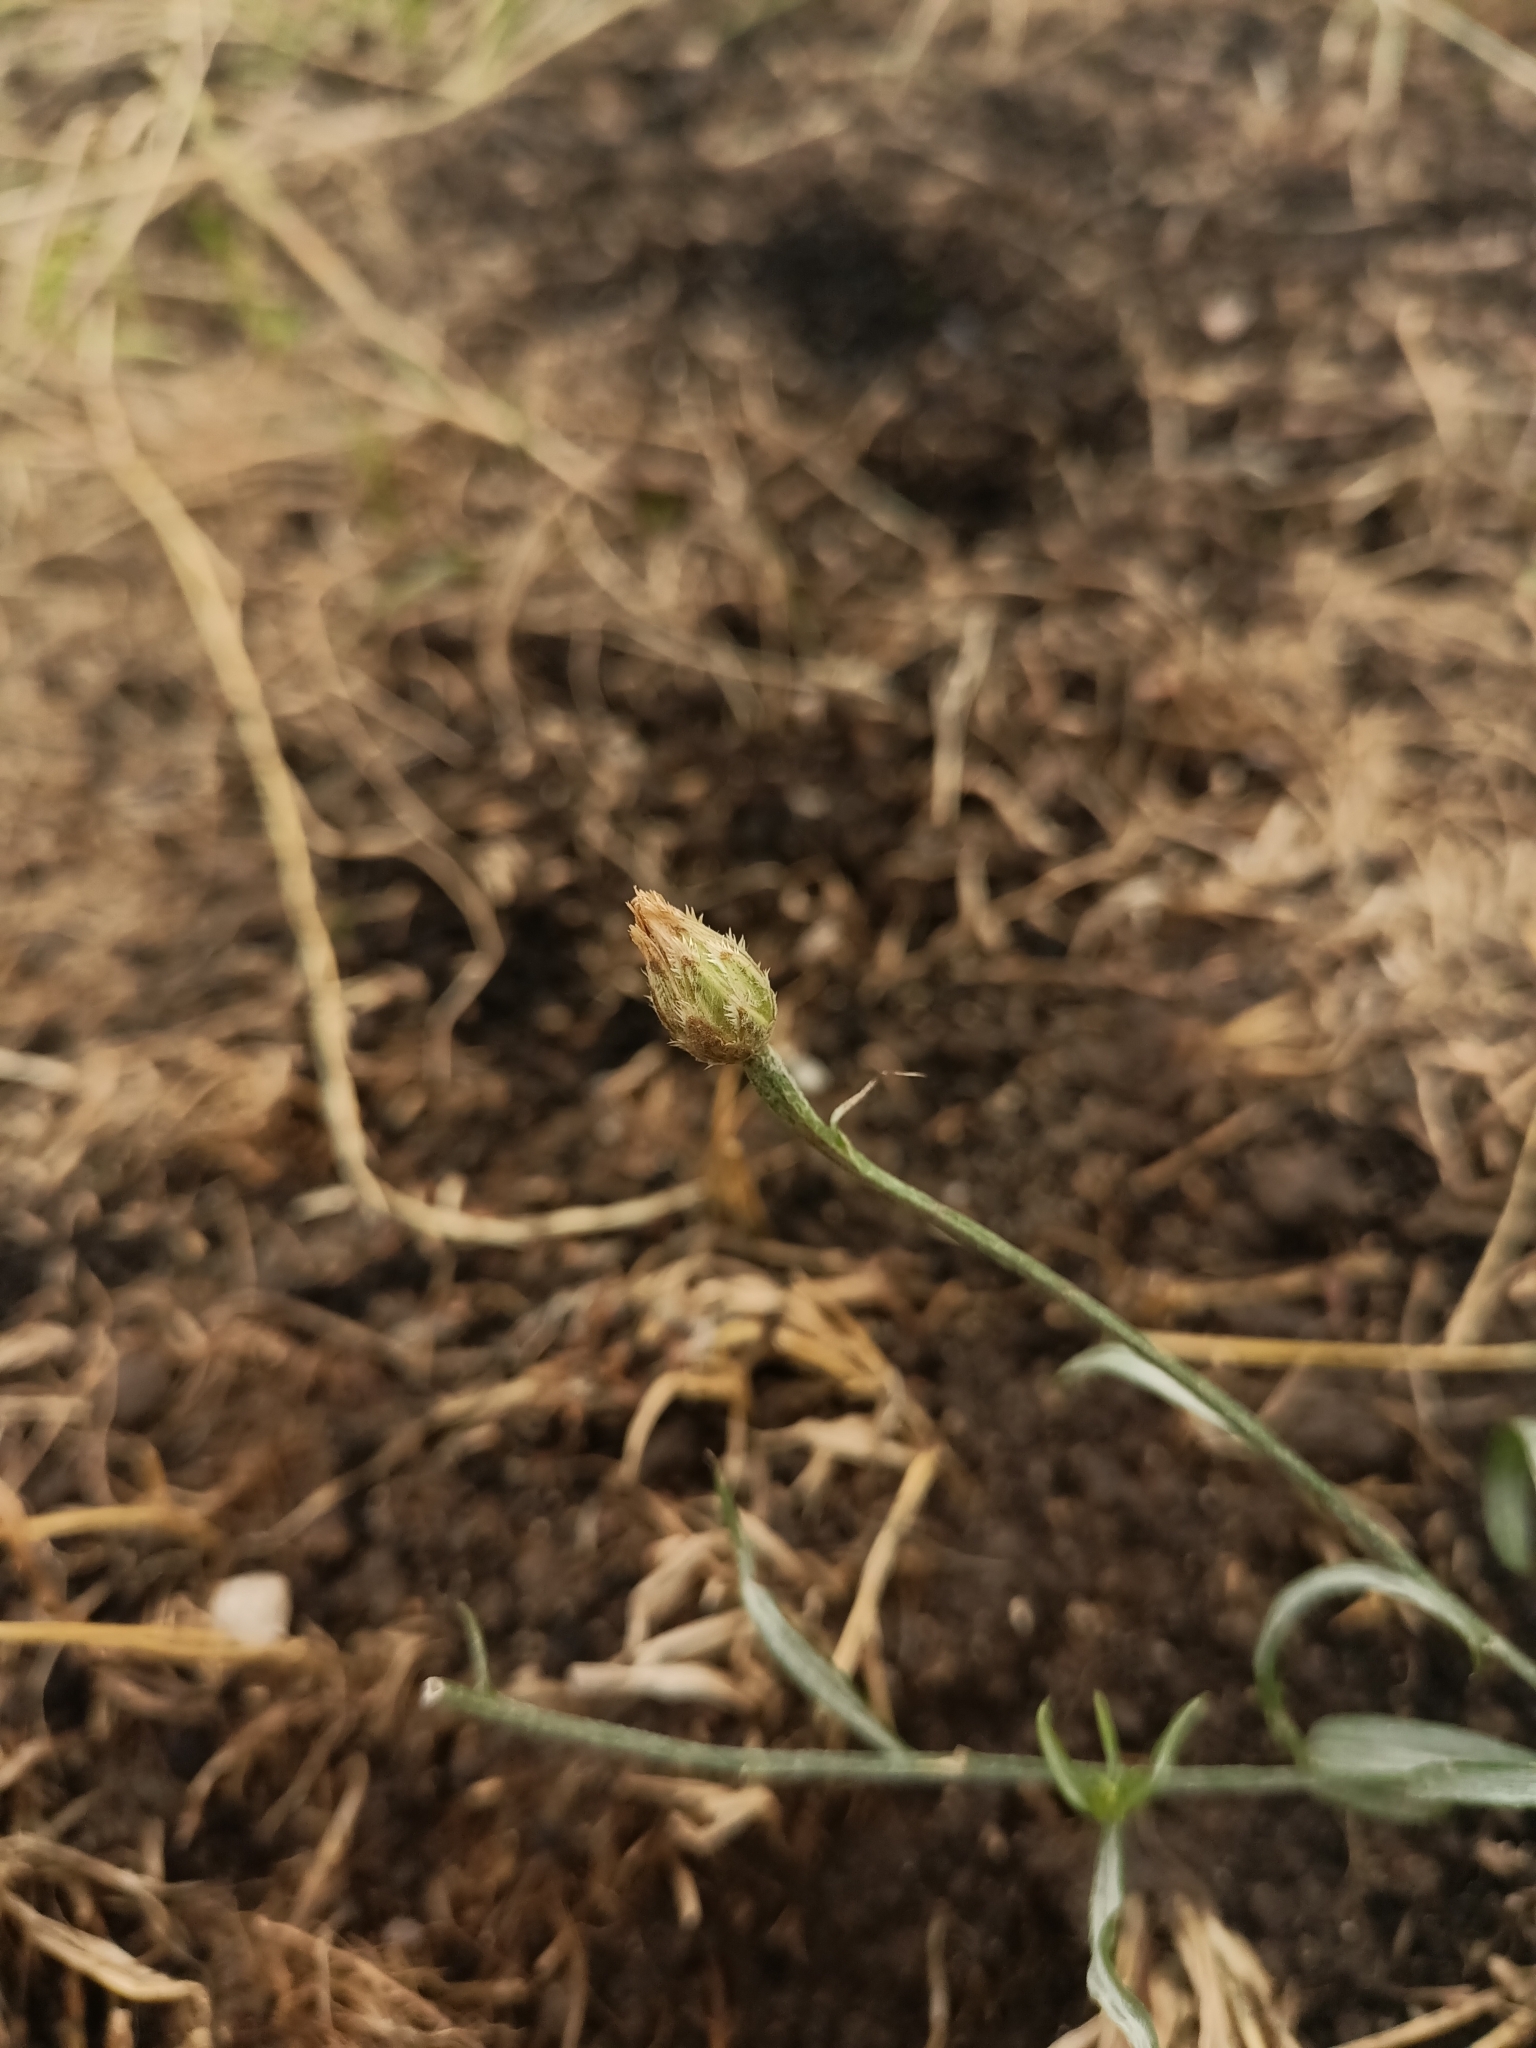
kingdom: Plantae
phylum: Tracheophyta
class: Magnoliopsida
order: Asterales
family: Asteraceae
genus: Centaurea
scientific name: Centaurea cyanus
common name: Cornflower
